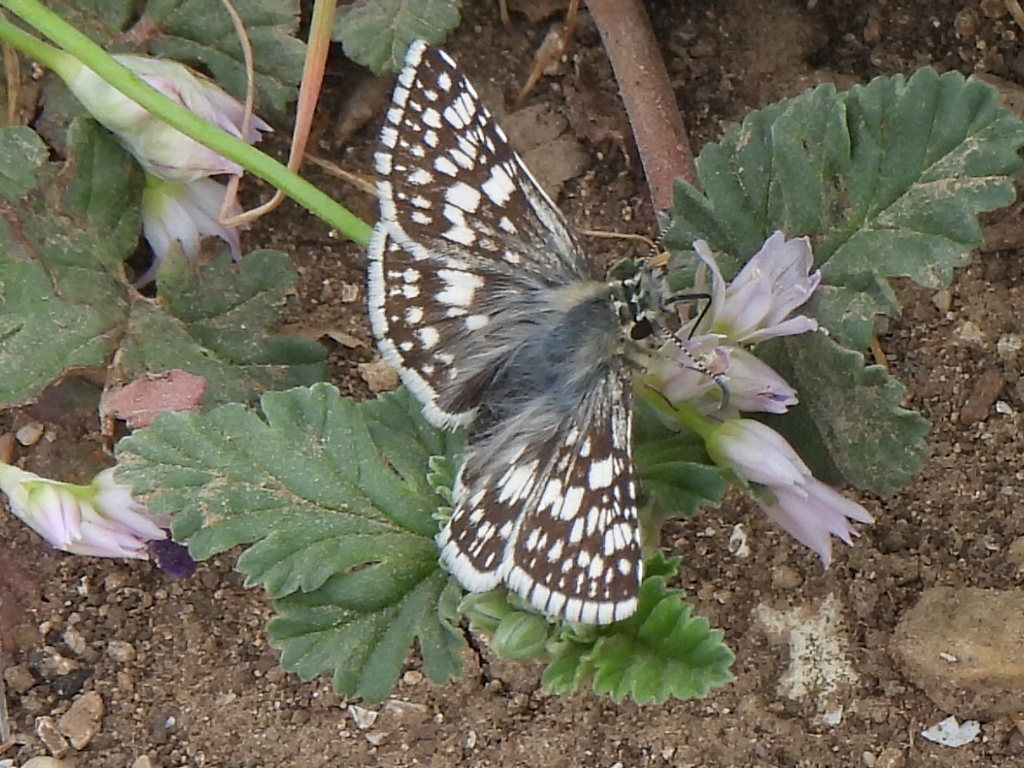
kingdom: Animalia
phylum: Arthropoda
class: Insecta
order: Lepidoptera
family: Hesperiidae
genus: Burnsius
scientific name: Burnsius
